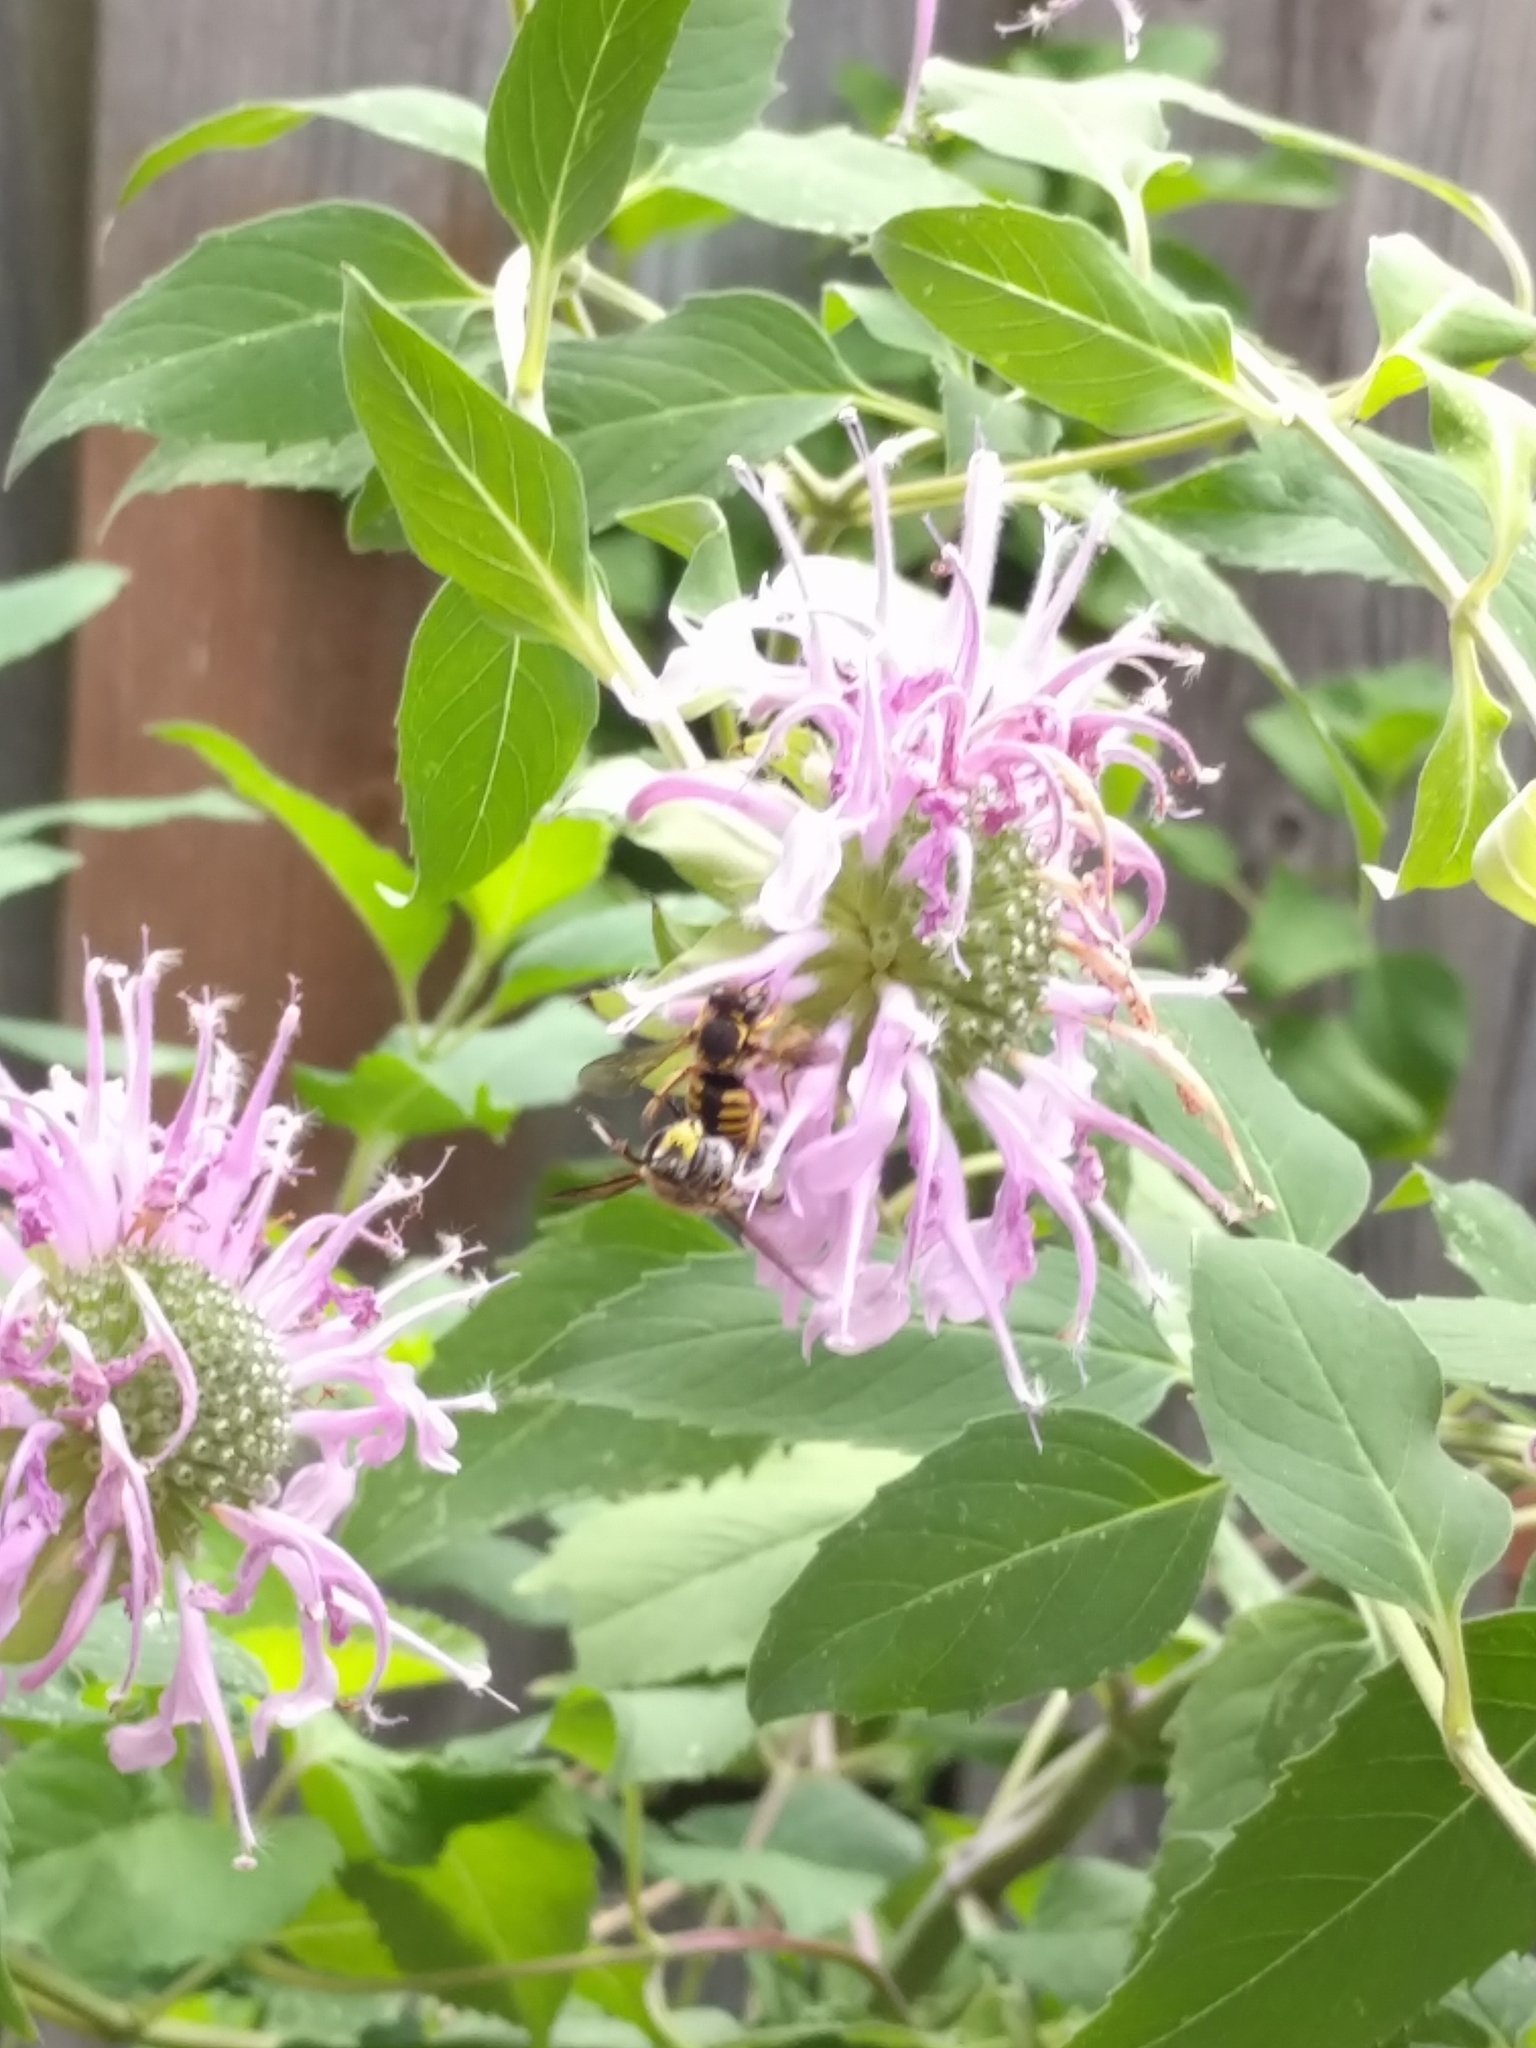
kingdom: Animalia
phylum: Arthropoda
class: Insecta
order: Hymenoptera
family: Megachilidae
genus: Anthidium
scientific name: Anthidium manicatum
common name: Wool carder bee
